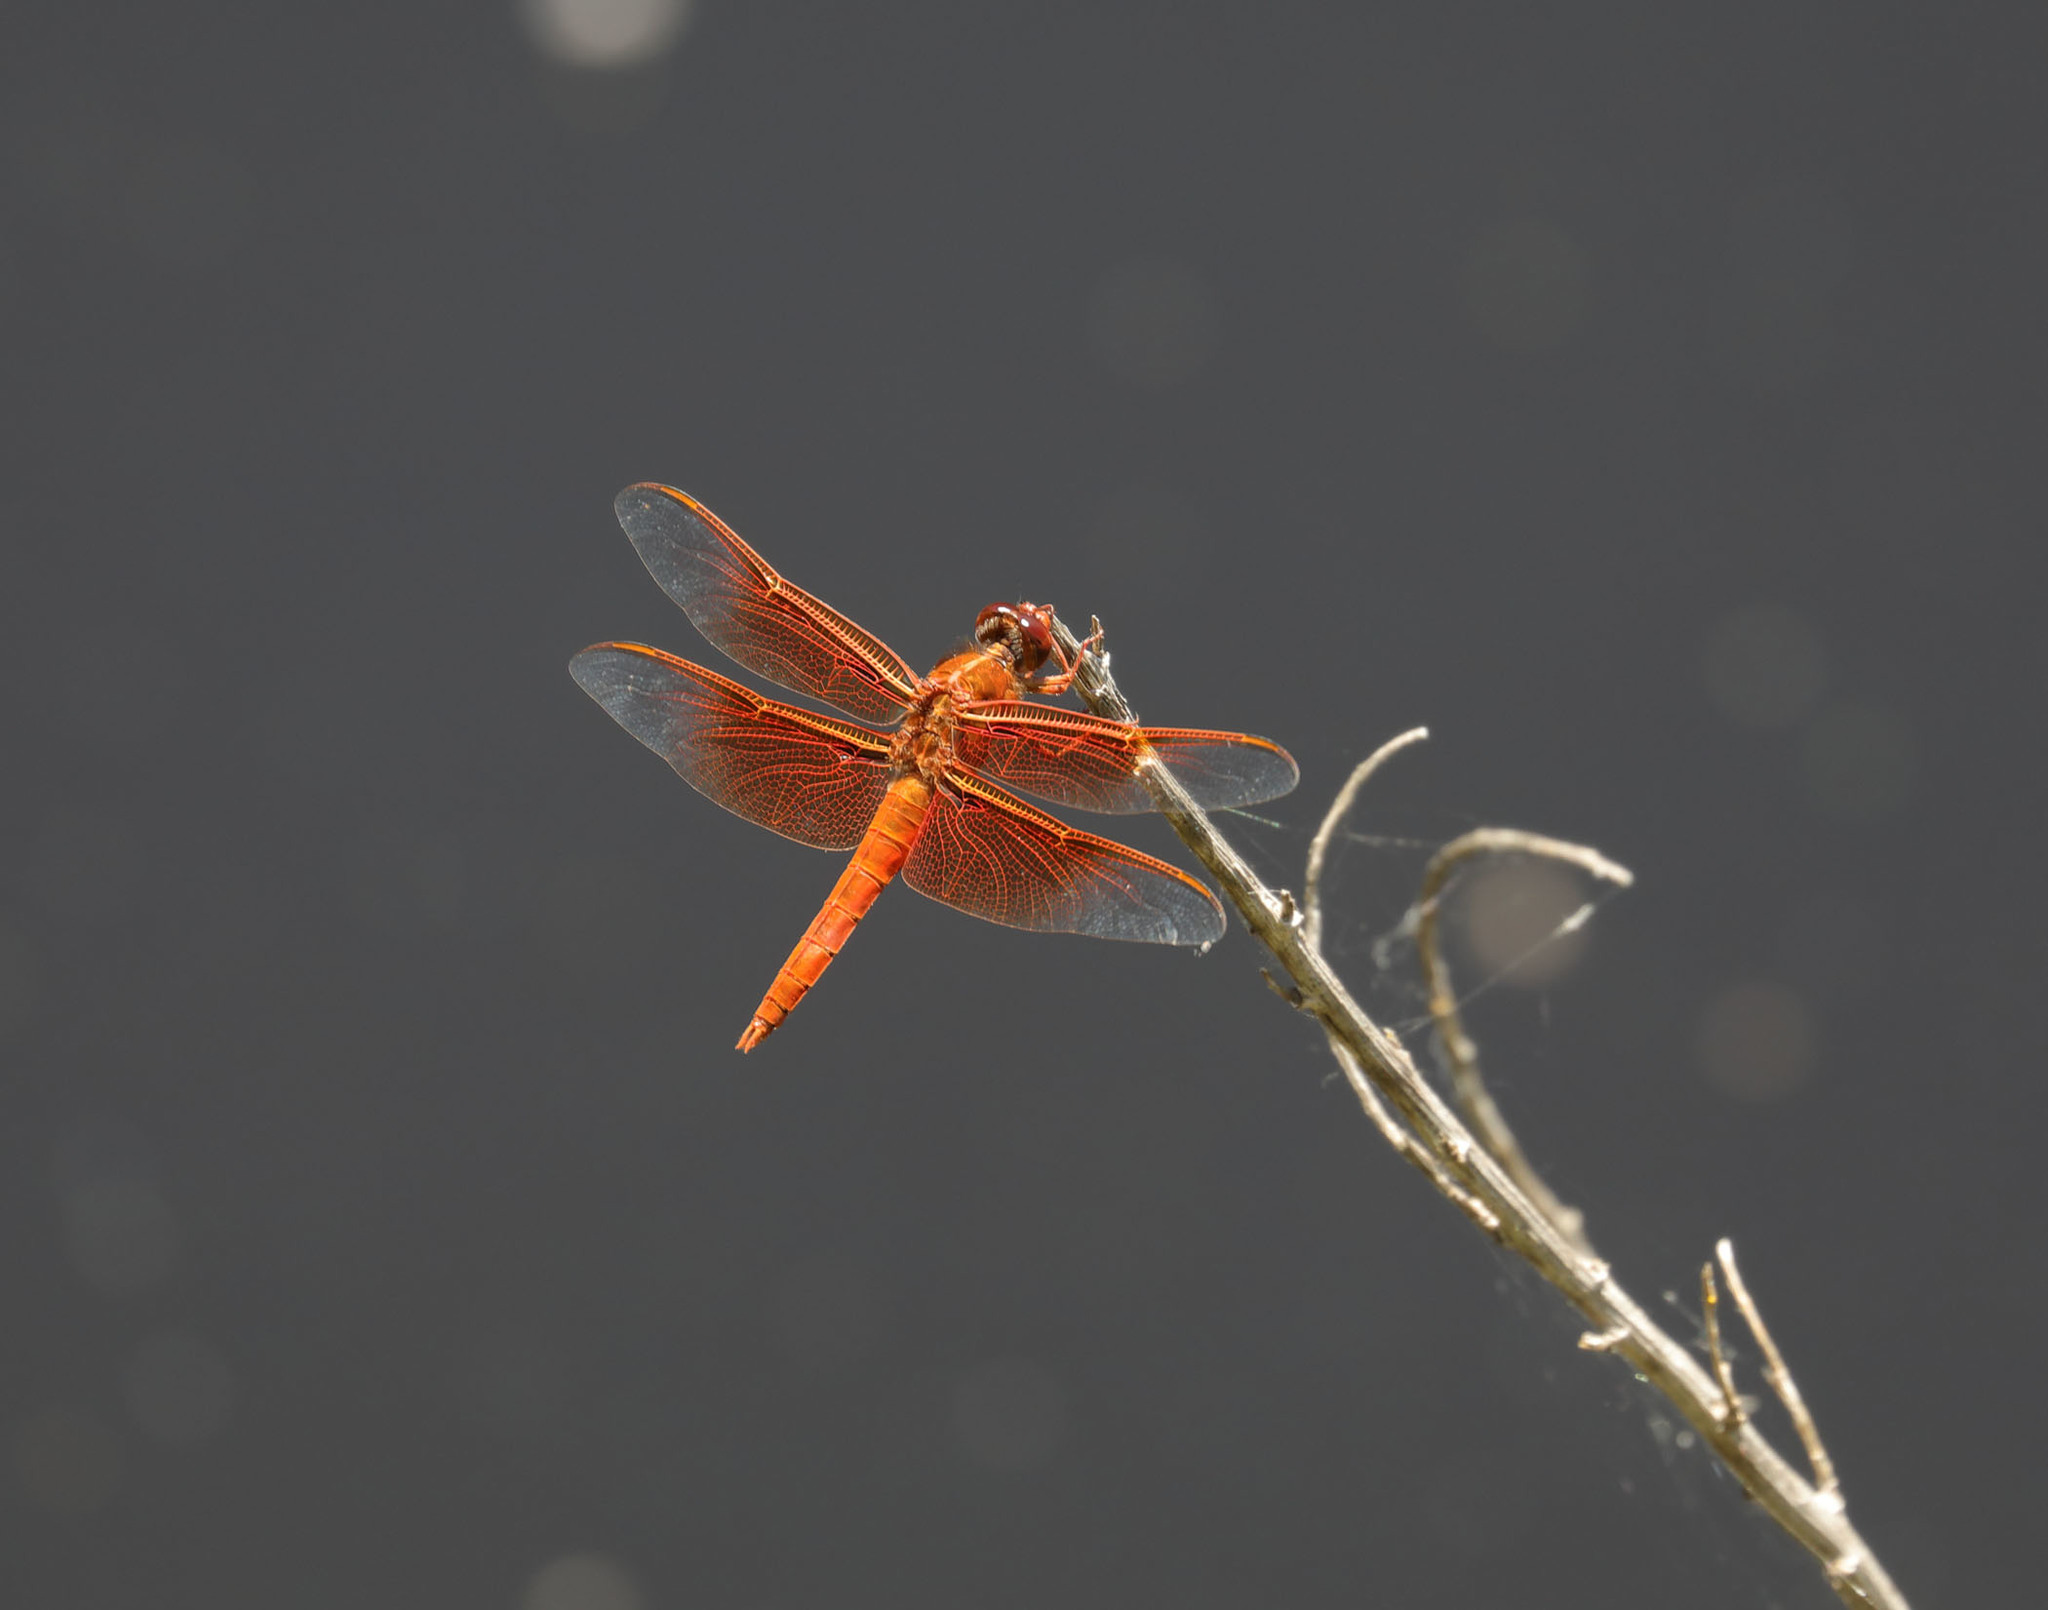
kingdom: Animalia
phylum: Arthropoda
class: Insecta
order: Odonata
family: Libellulidae
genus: Libellula
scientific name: Libellula saturata
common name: Flame skimmer
